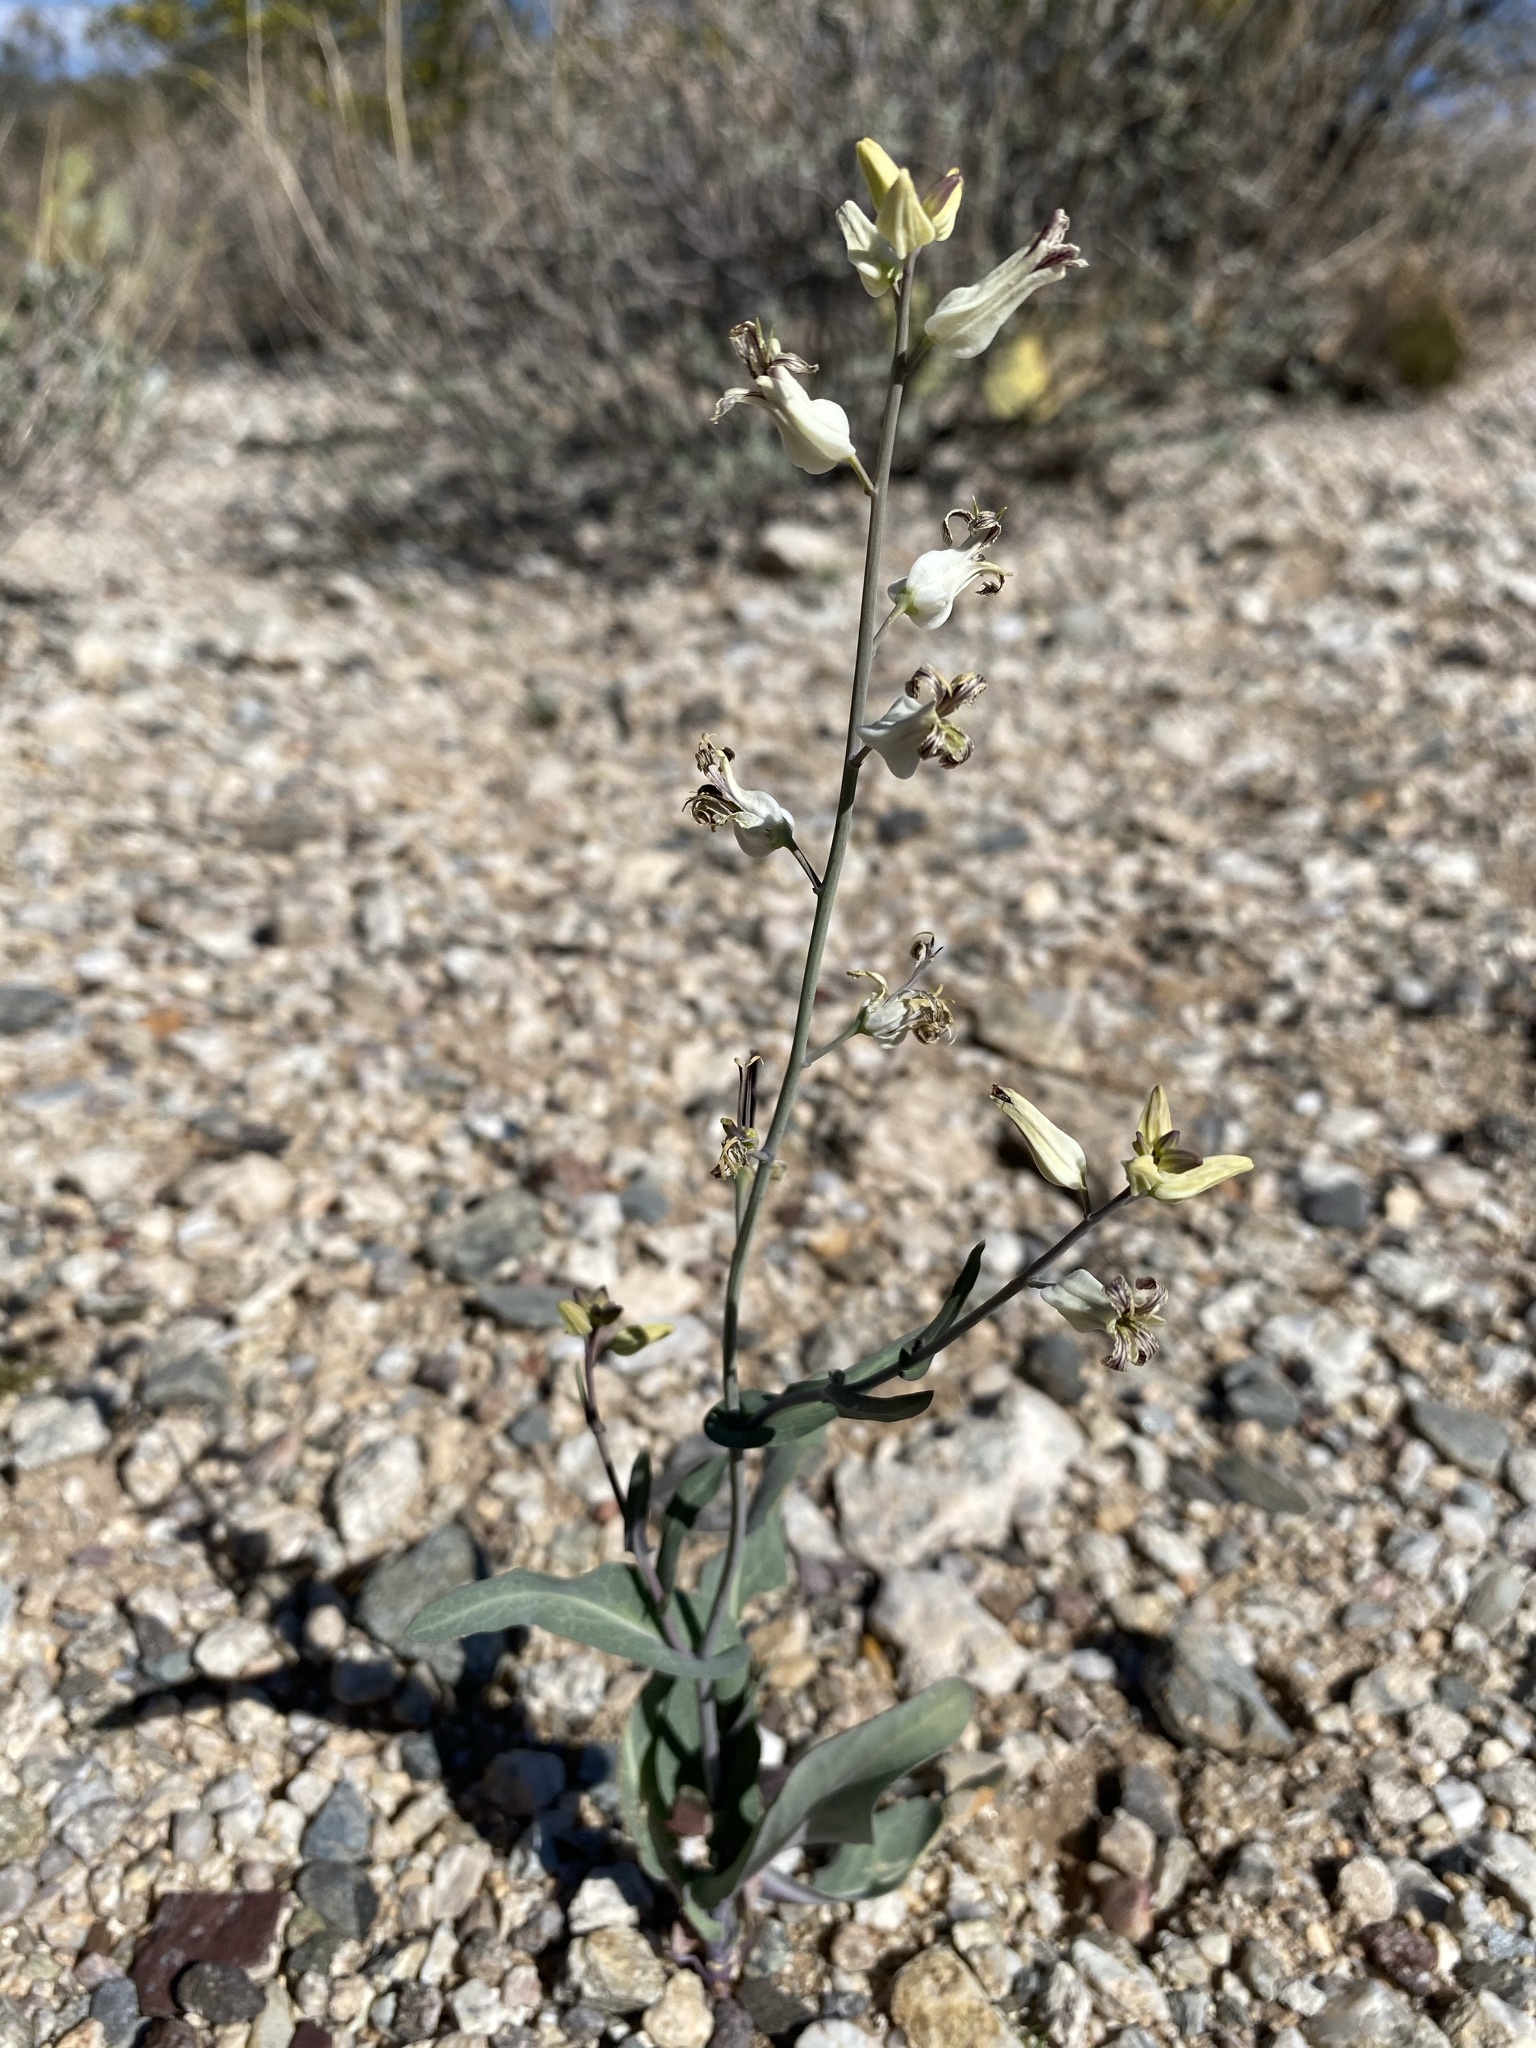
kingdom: Plantae
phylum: Tracheophyta
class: Magnoliopsida
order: Brassicales
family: Brassicaceae
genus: Streptanthus
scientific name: Streptanthus carinatus
